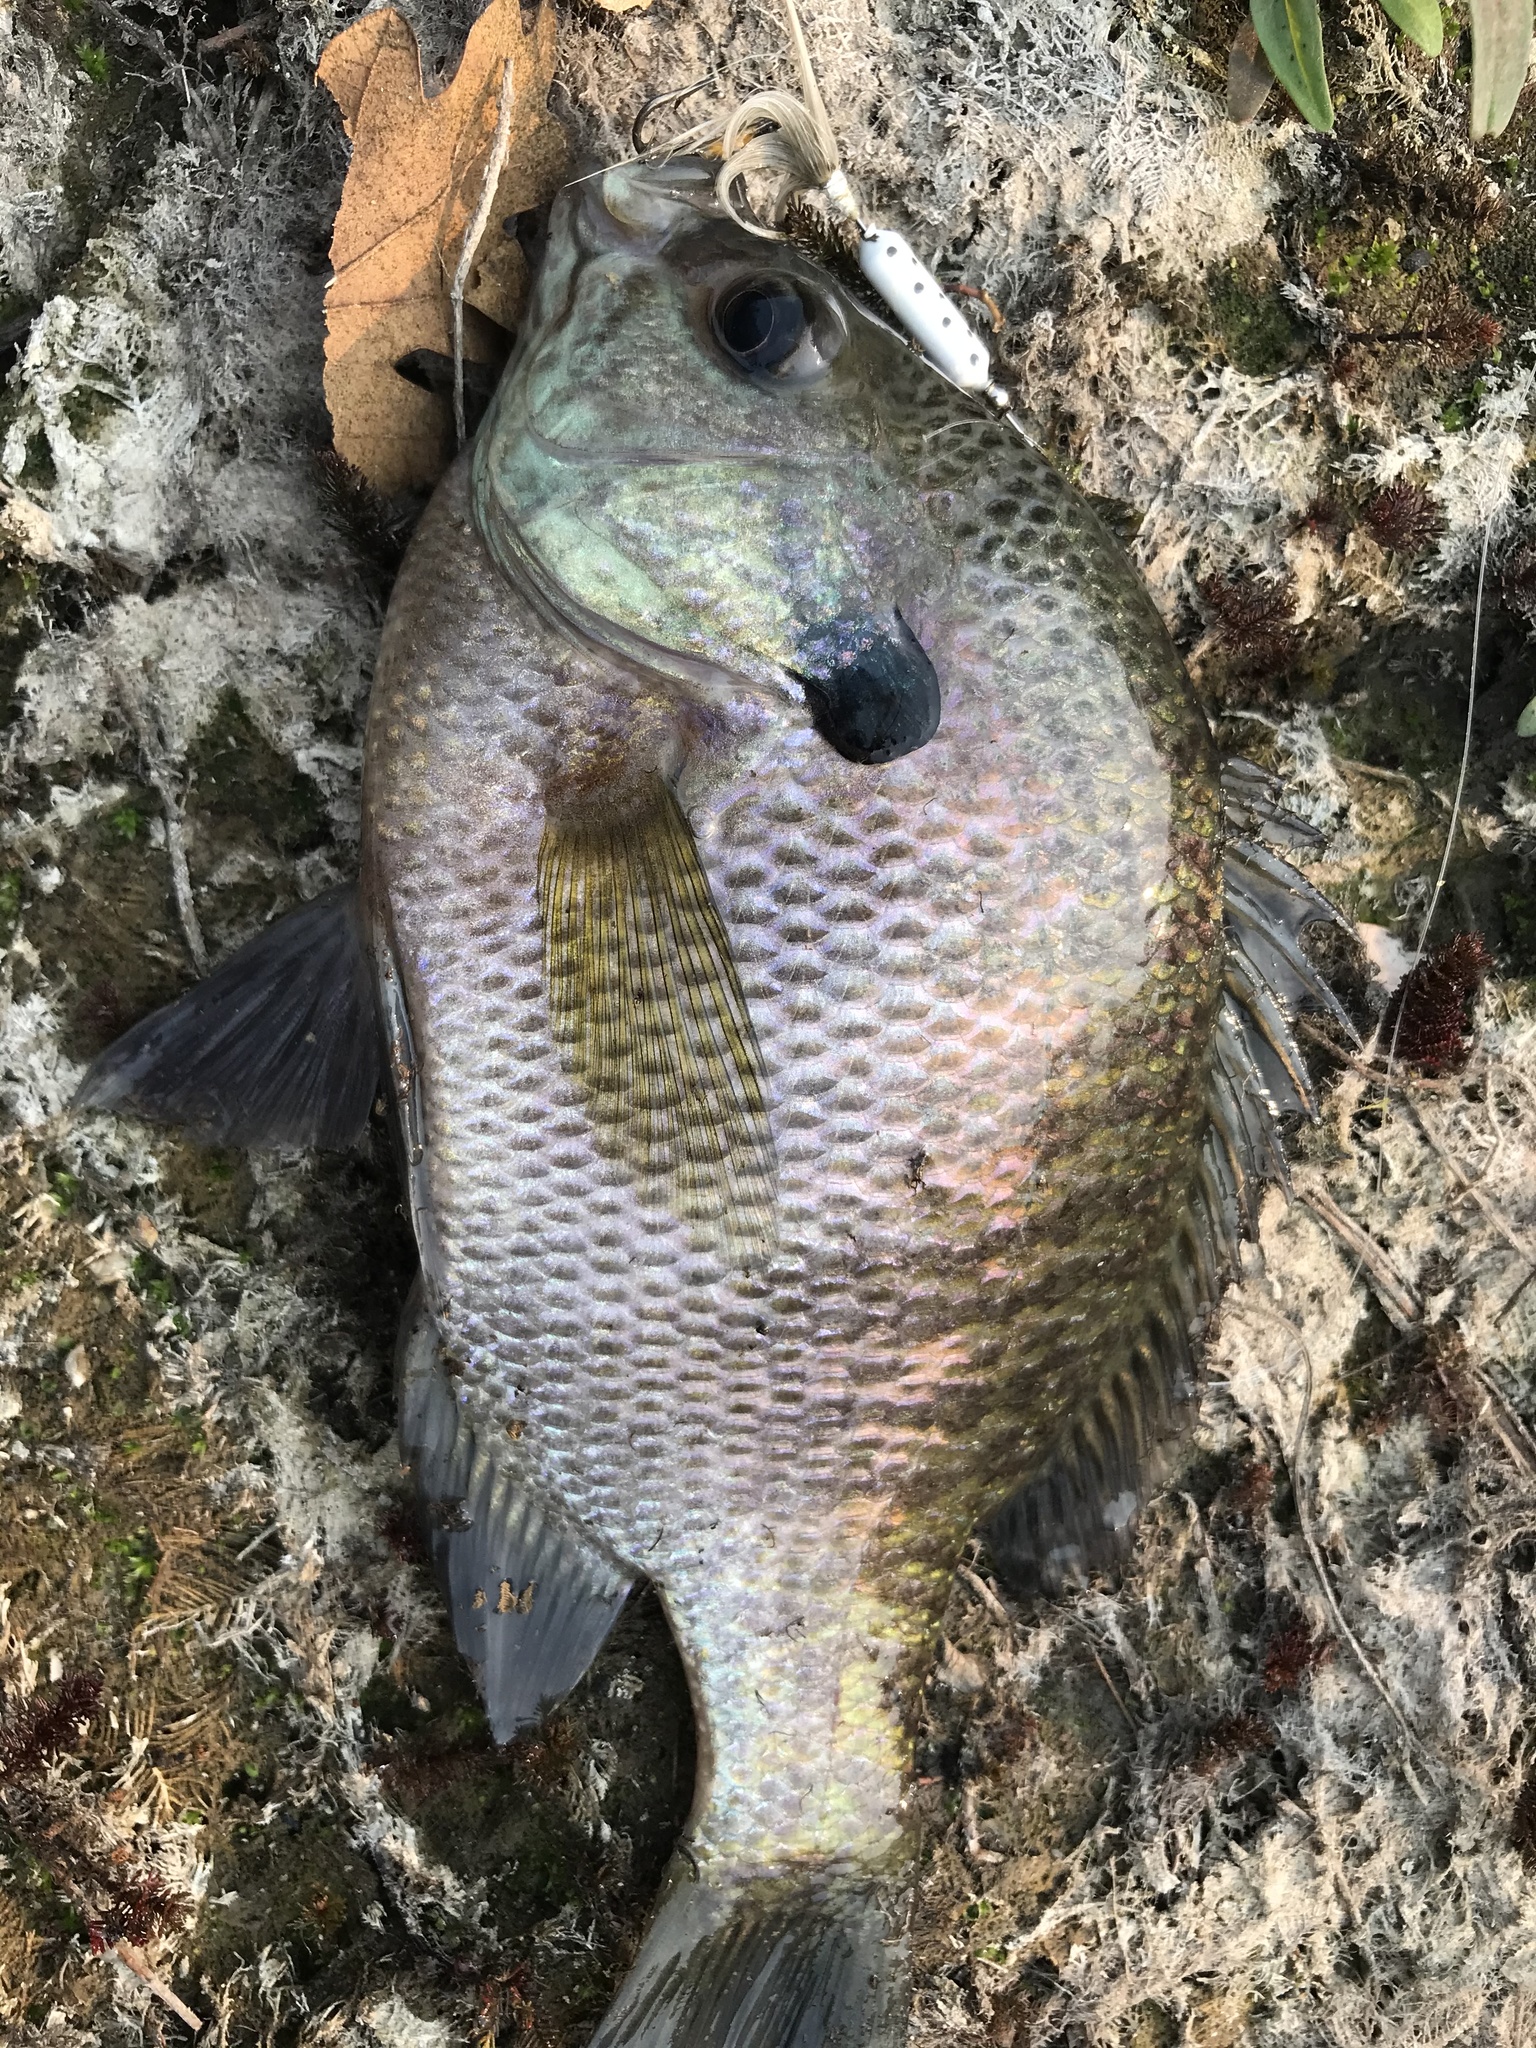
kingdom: Animalia
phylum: Chordata
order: Perciformes
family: Centrarchidae
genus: Lepomis
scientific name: Lepomis macrochirus
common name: Bluegill
